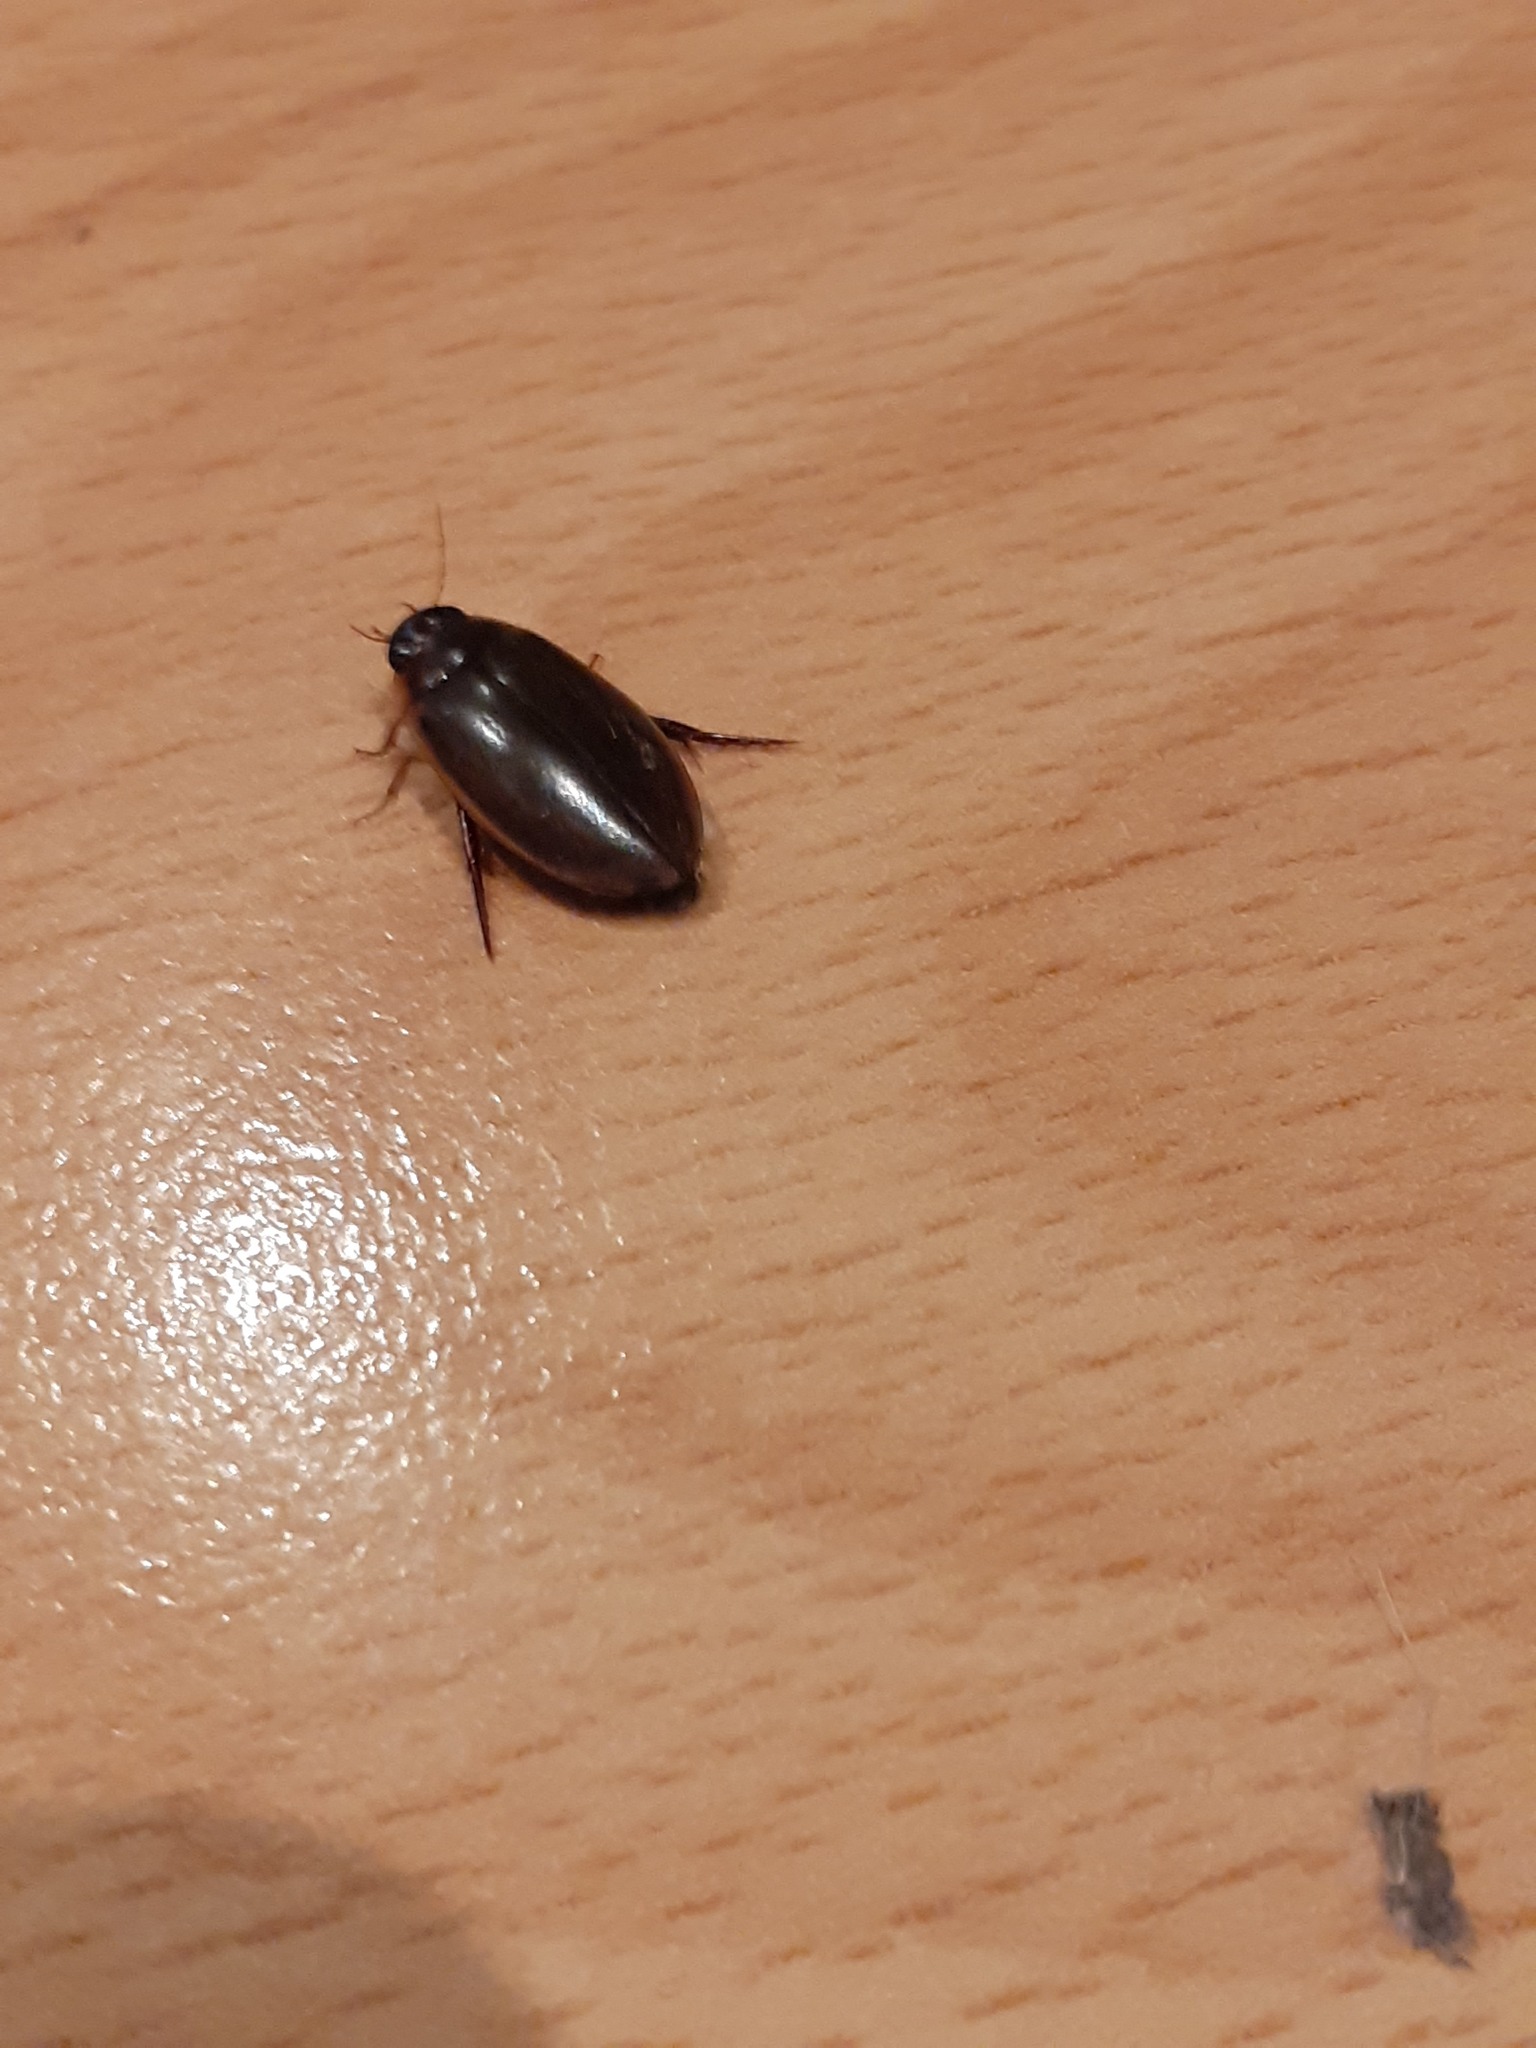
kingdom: Animalia
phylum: Arthropoda
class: Insecta
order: Coleoptera
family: Dytiscidae
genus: Colymbetes
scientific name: Colymbetes
